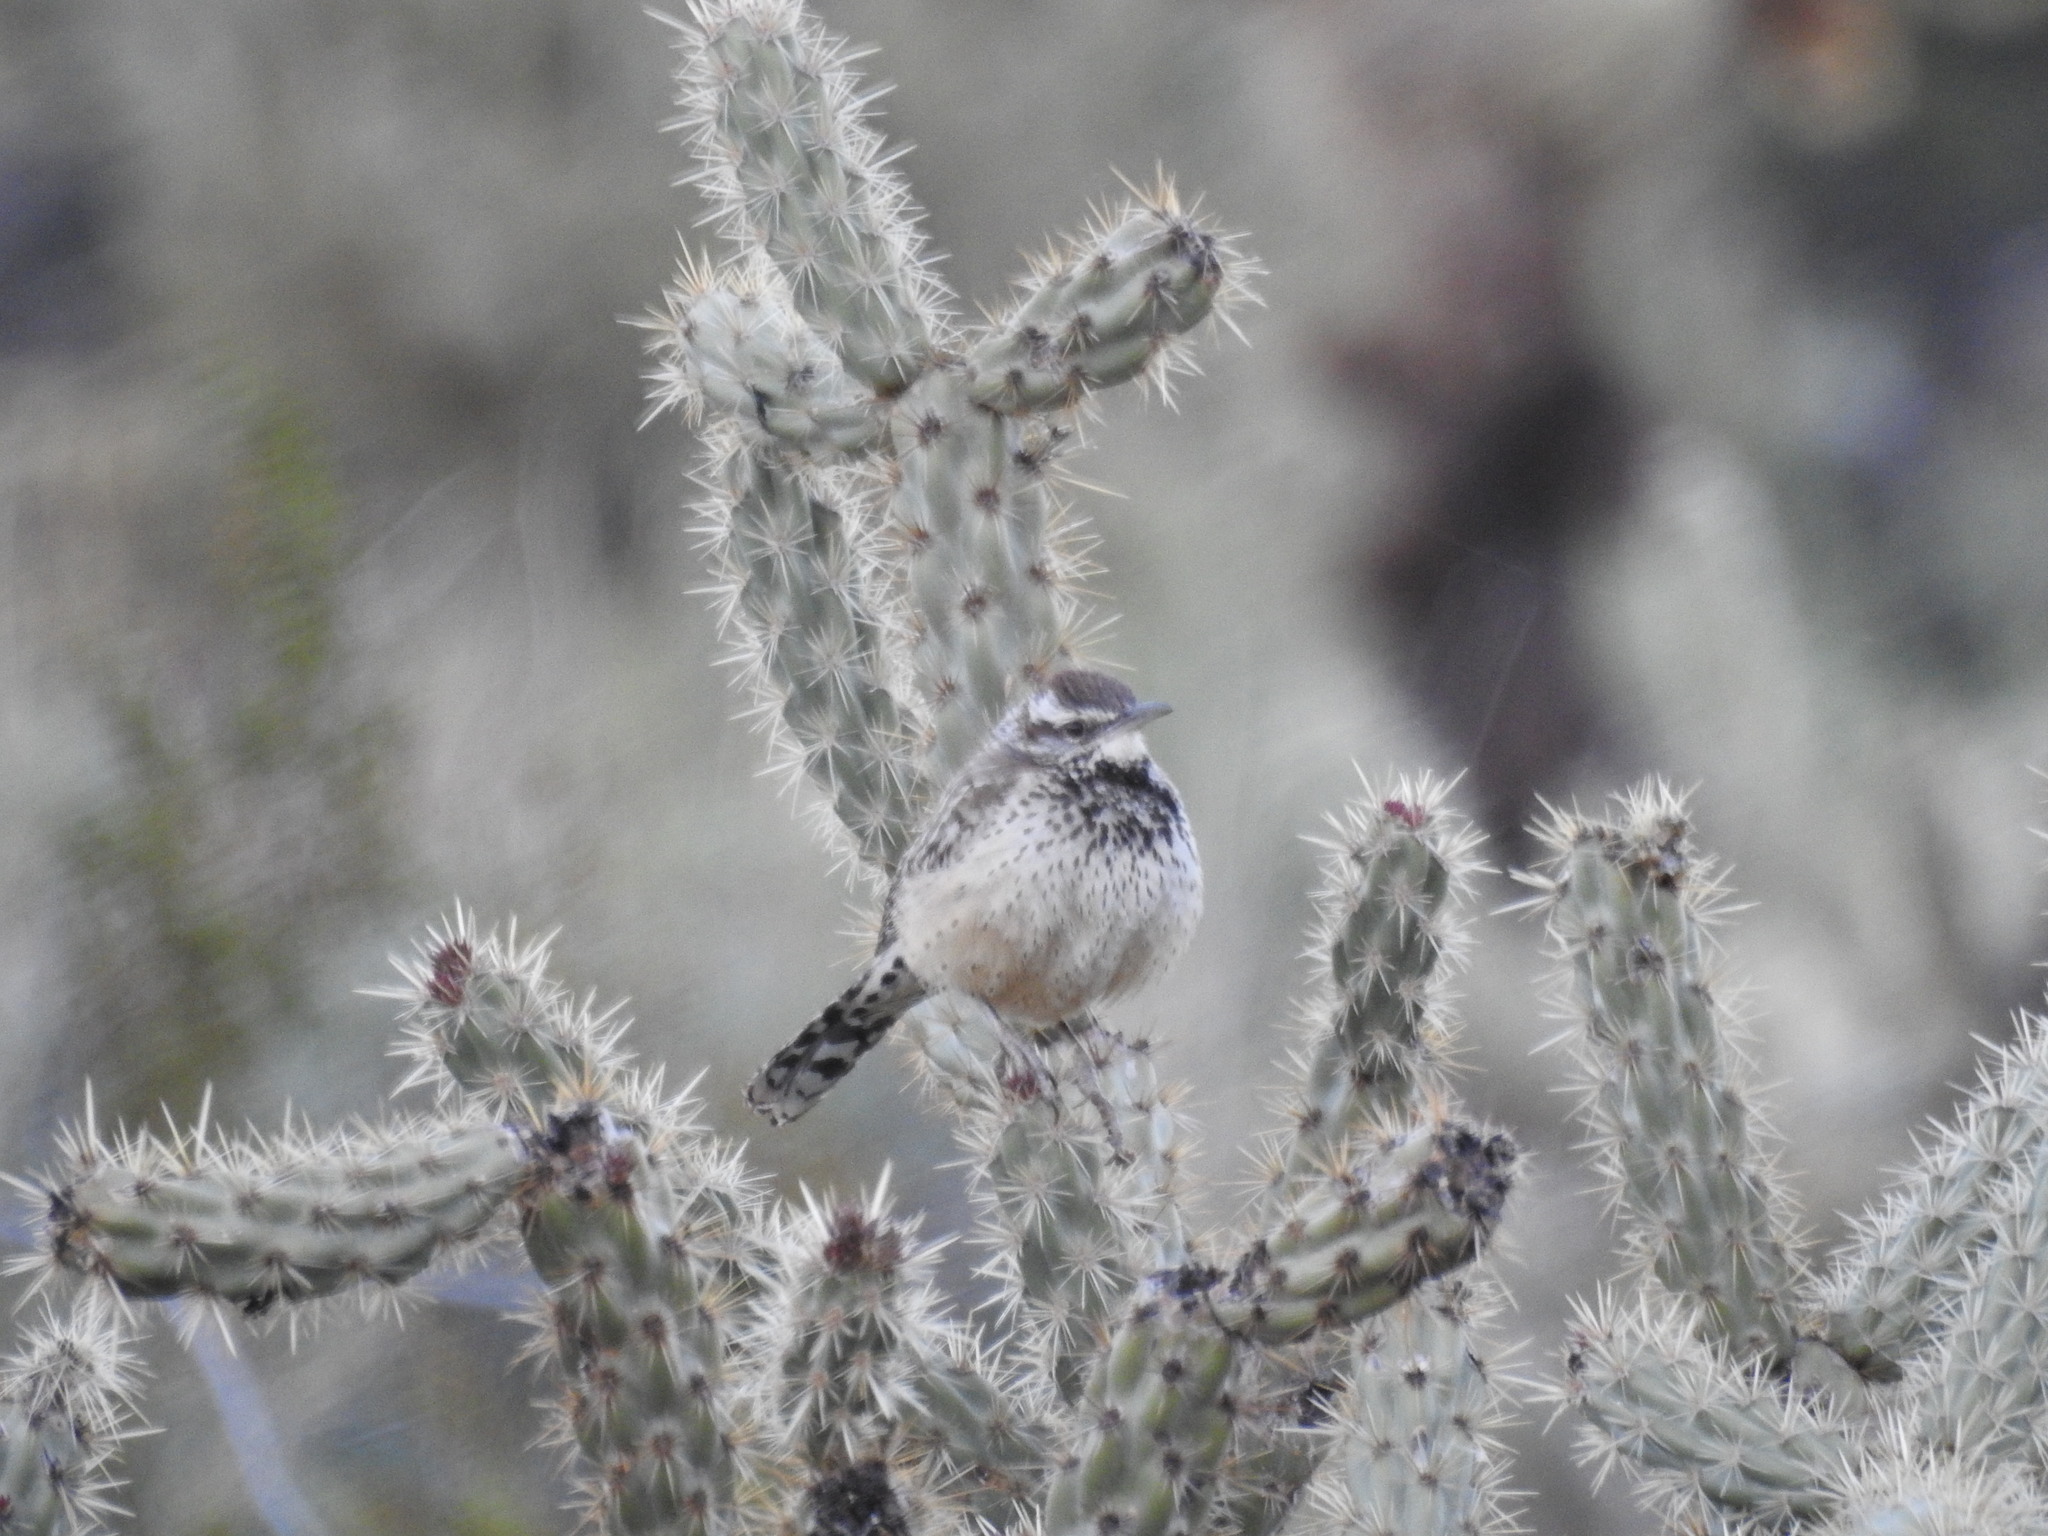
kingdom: Animalia
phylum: Chordata
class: Aves
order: Passeriformes
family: Troglodytidae
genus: Campylorhynchus
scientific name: Campylorhynchus brunneicapillus
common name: Cactus wren
